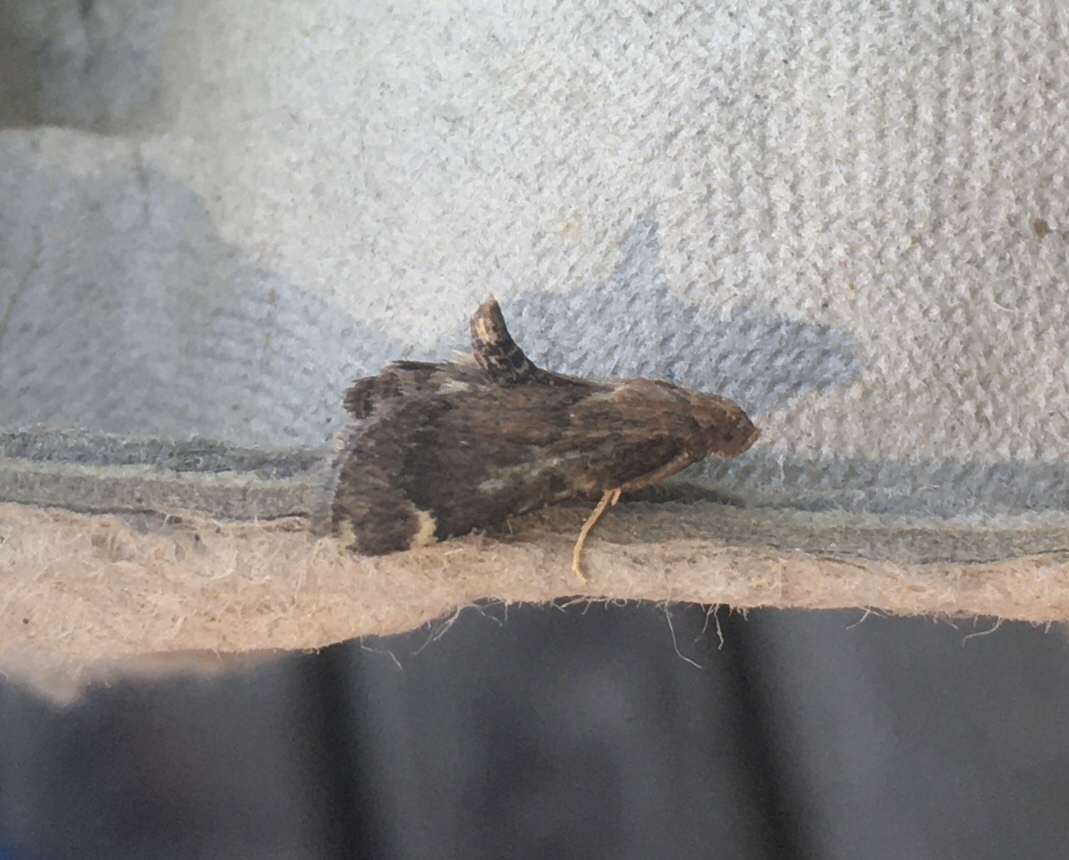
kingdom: Animalia
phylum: Arthropoda
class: Insecta
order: Lepidoptera
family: Pyralidae
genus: Hypsopygia
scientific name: Hypsopygia intermedialis
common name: Red-shawled moth
